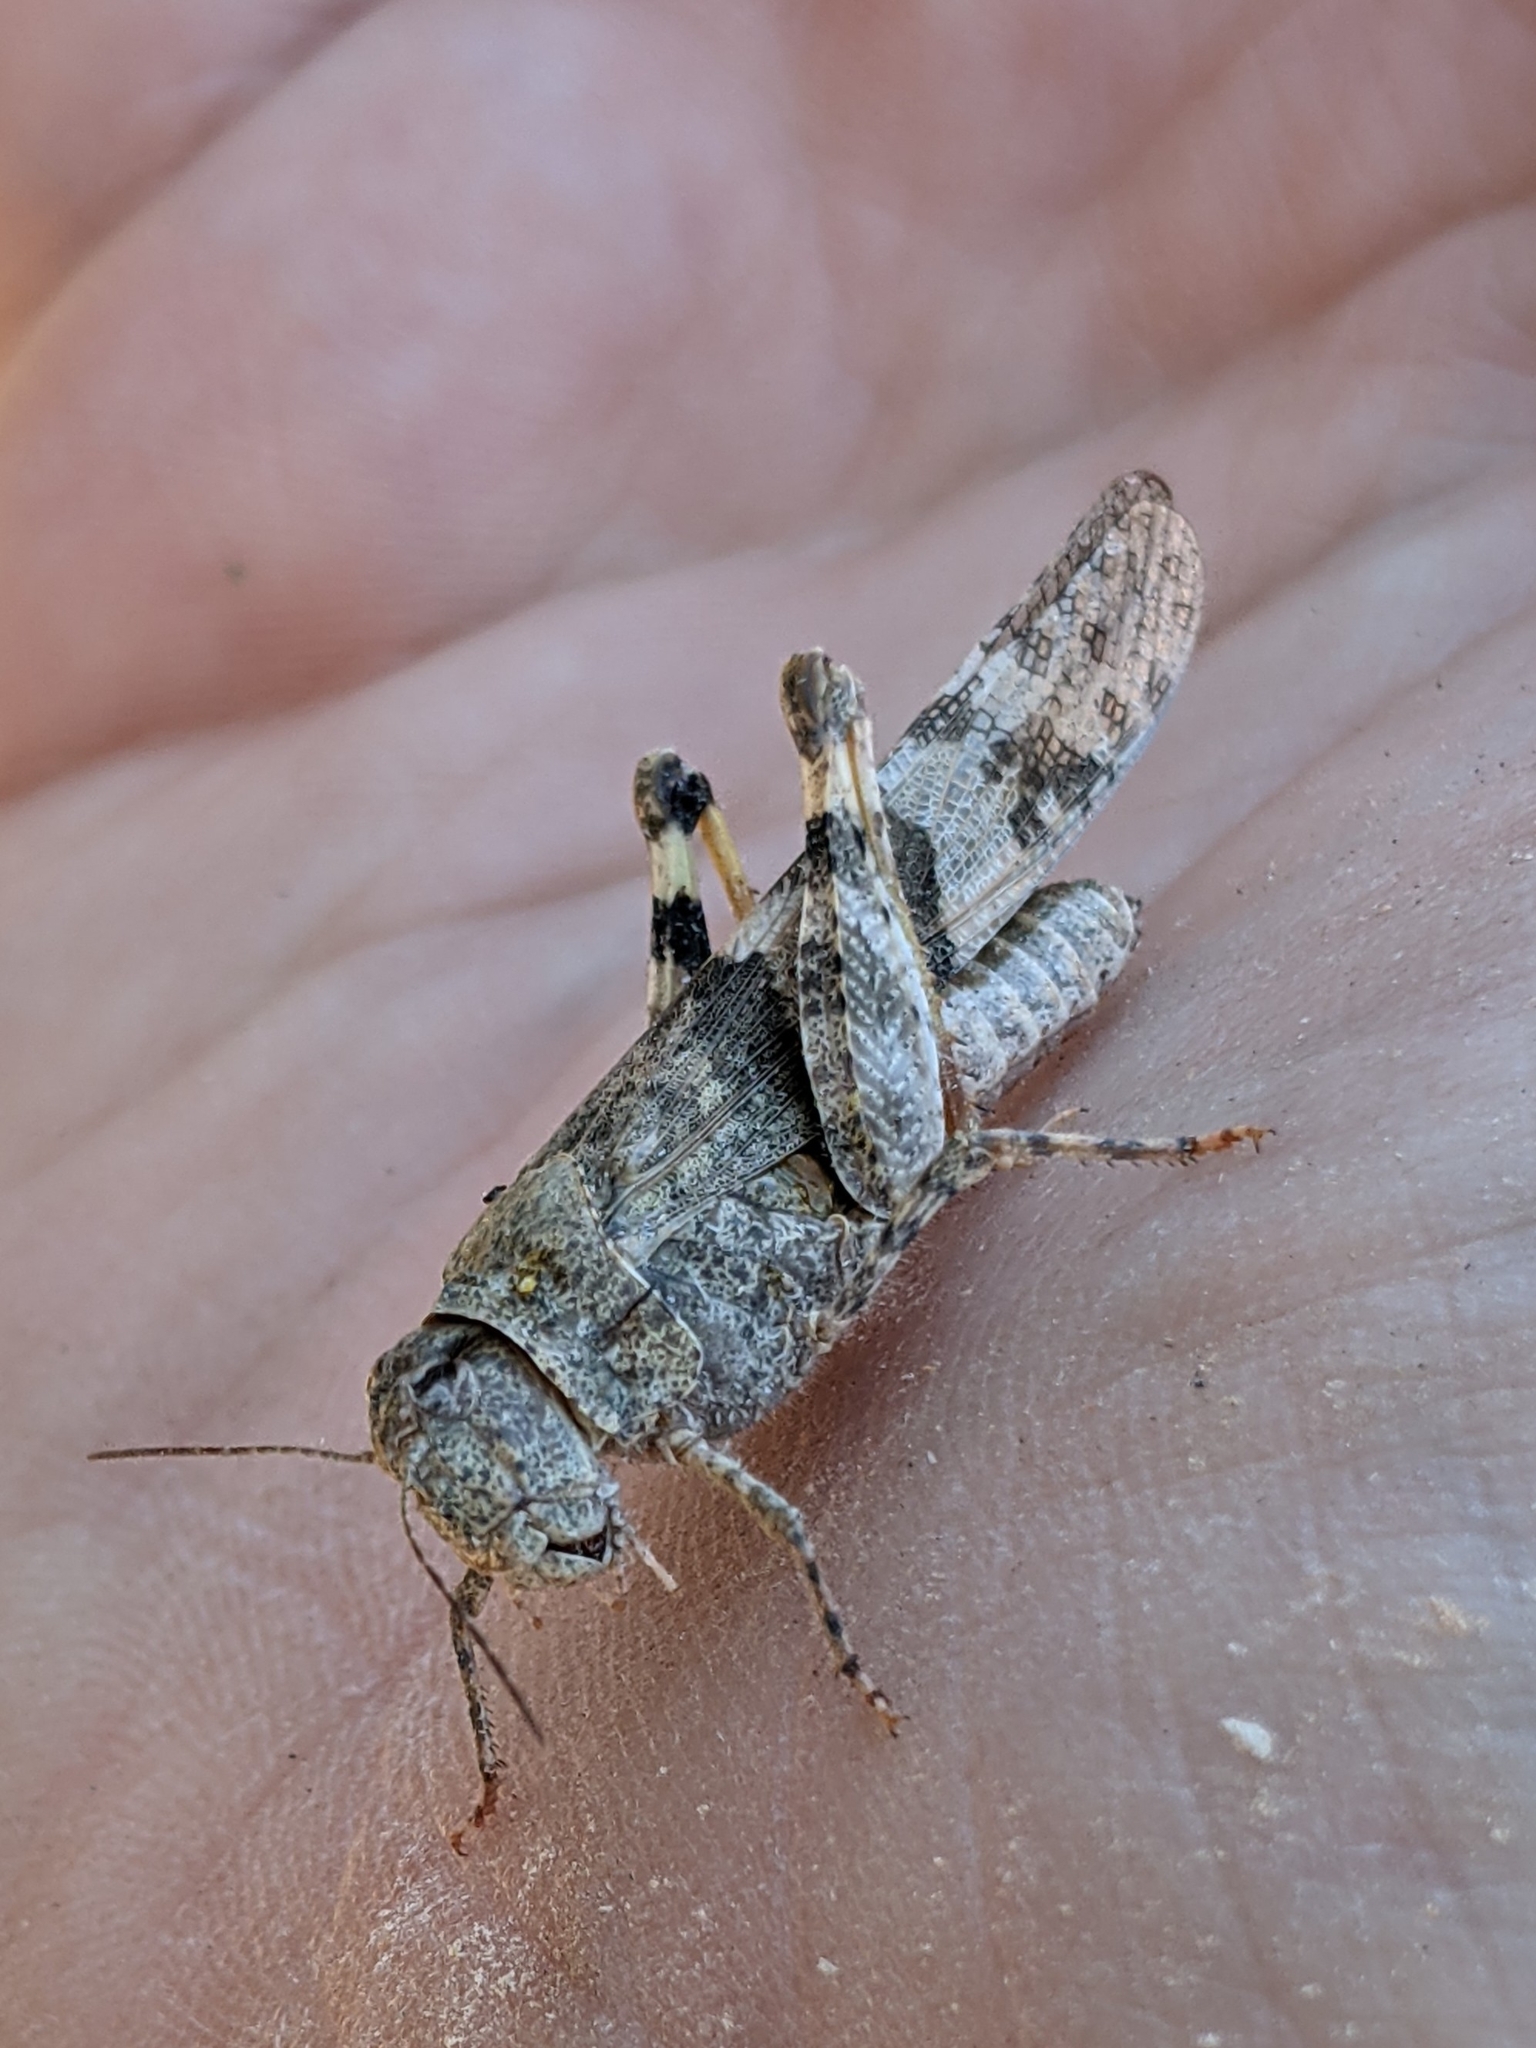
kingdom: Animalia
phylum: Arthropoda
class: Insecta
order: Orthoptera
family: Acrididae
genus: Trimerotropis
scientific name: Trimerotropis pallidipennis
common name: Pallid-winged grasshopper
